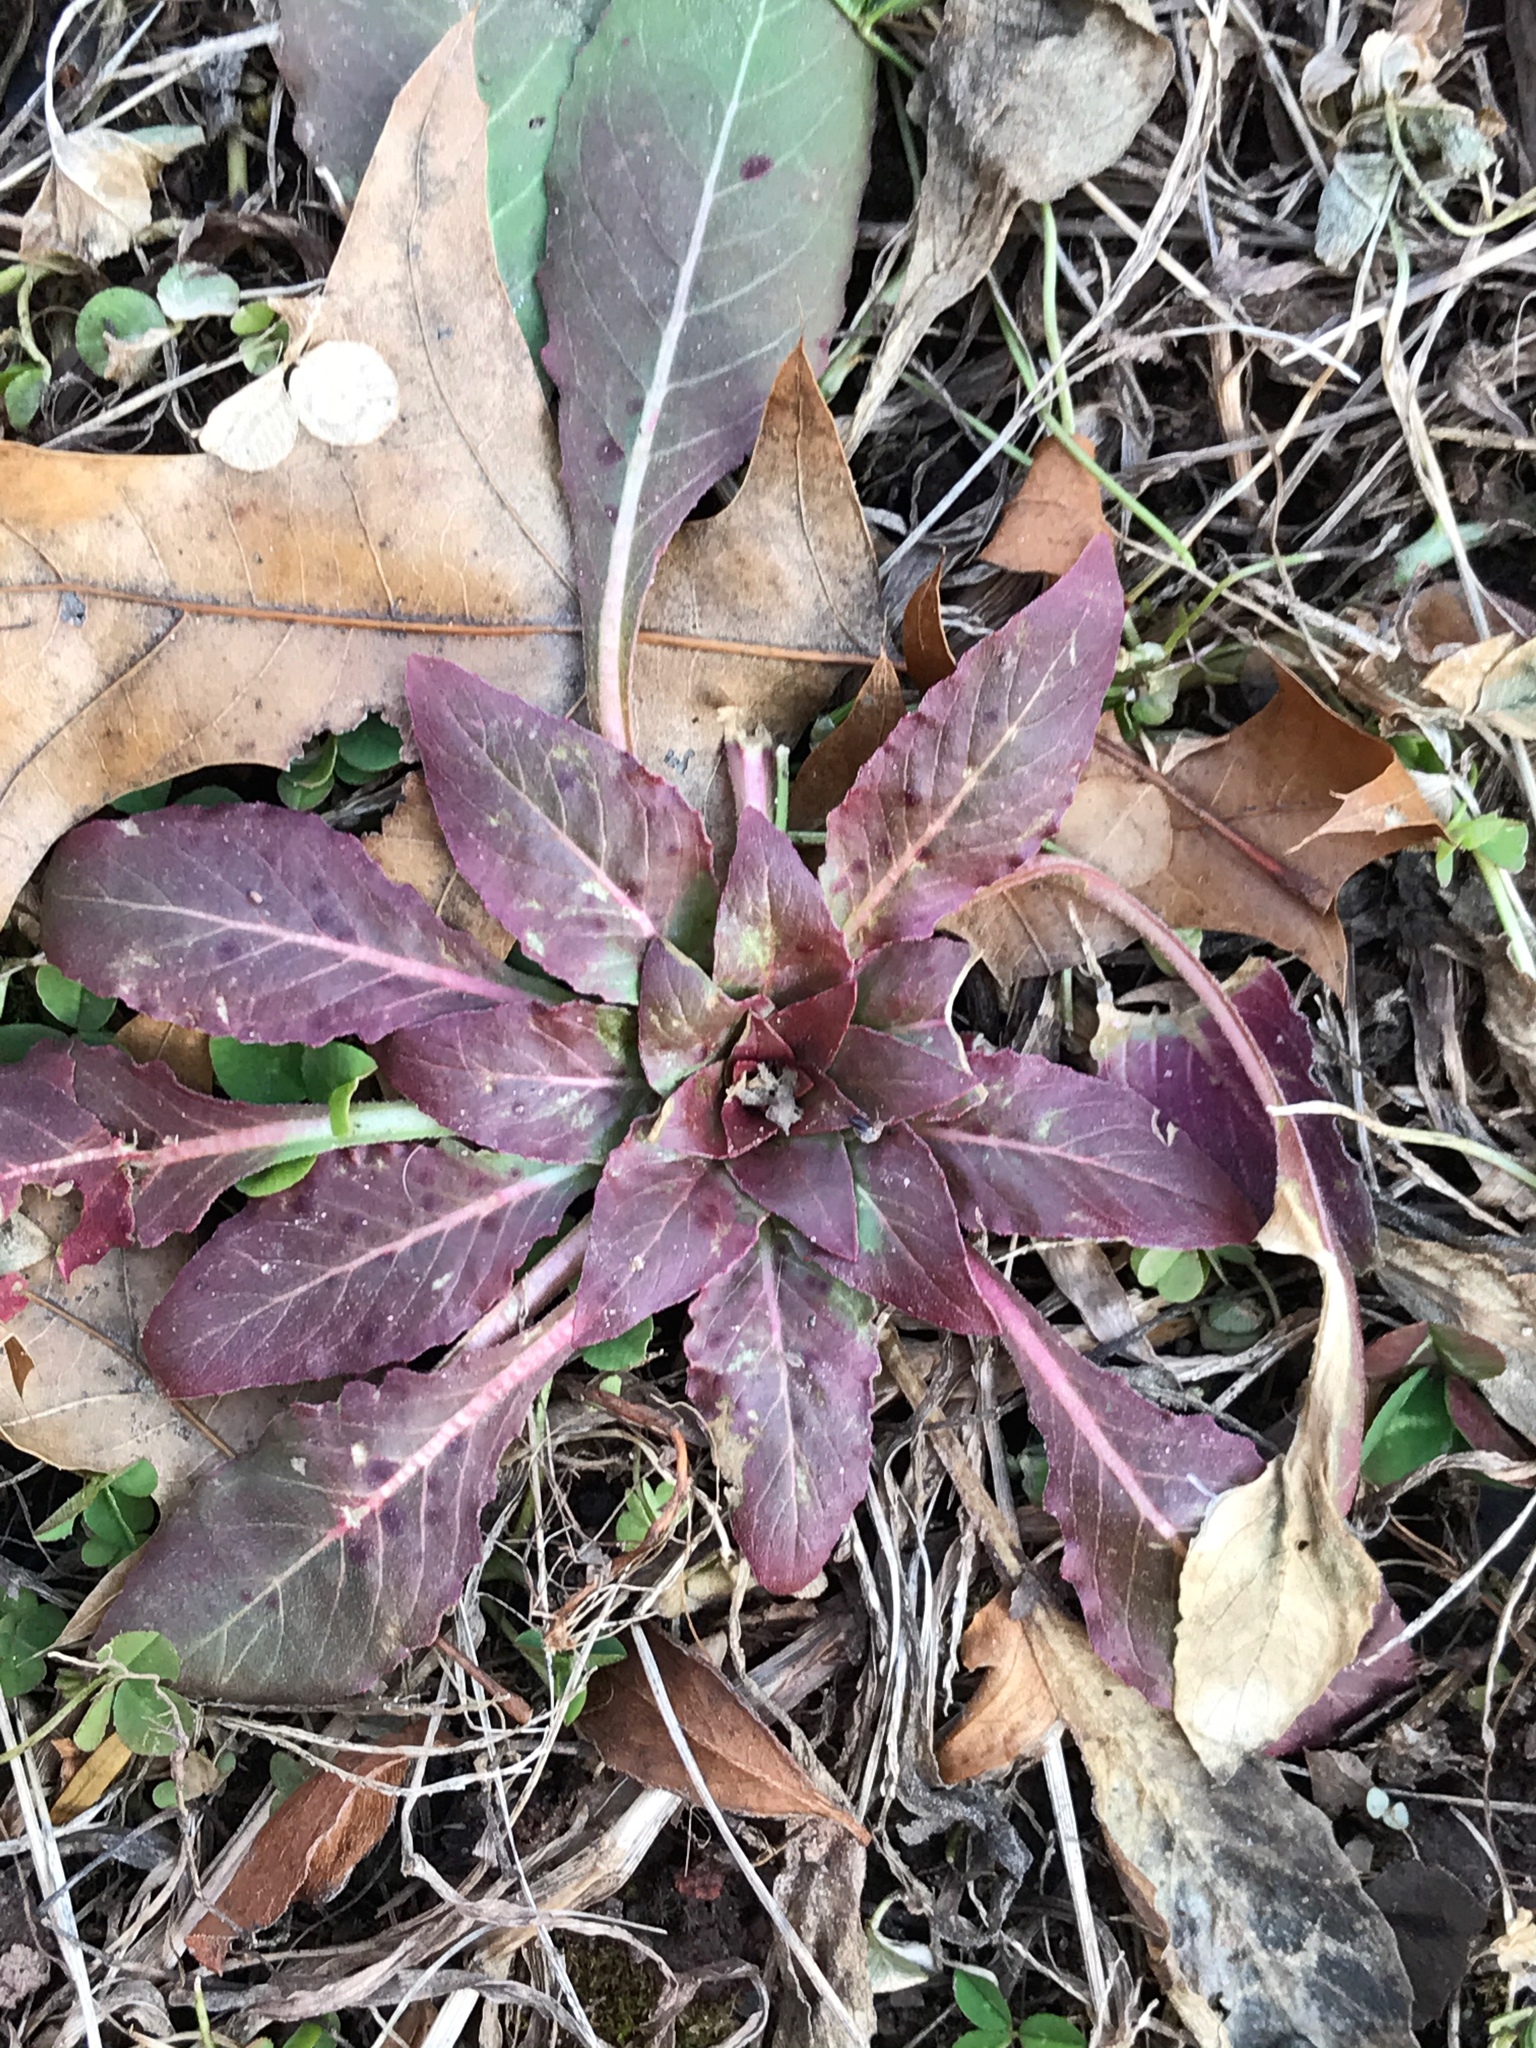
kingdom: Plantae
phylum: Tracheophyta
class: Magnoliopsida
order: Myrtales
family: Onagraceae
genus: Oenothera
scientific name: Oenothera biennis
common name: Common evening-primrose
